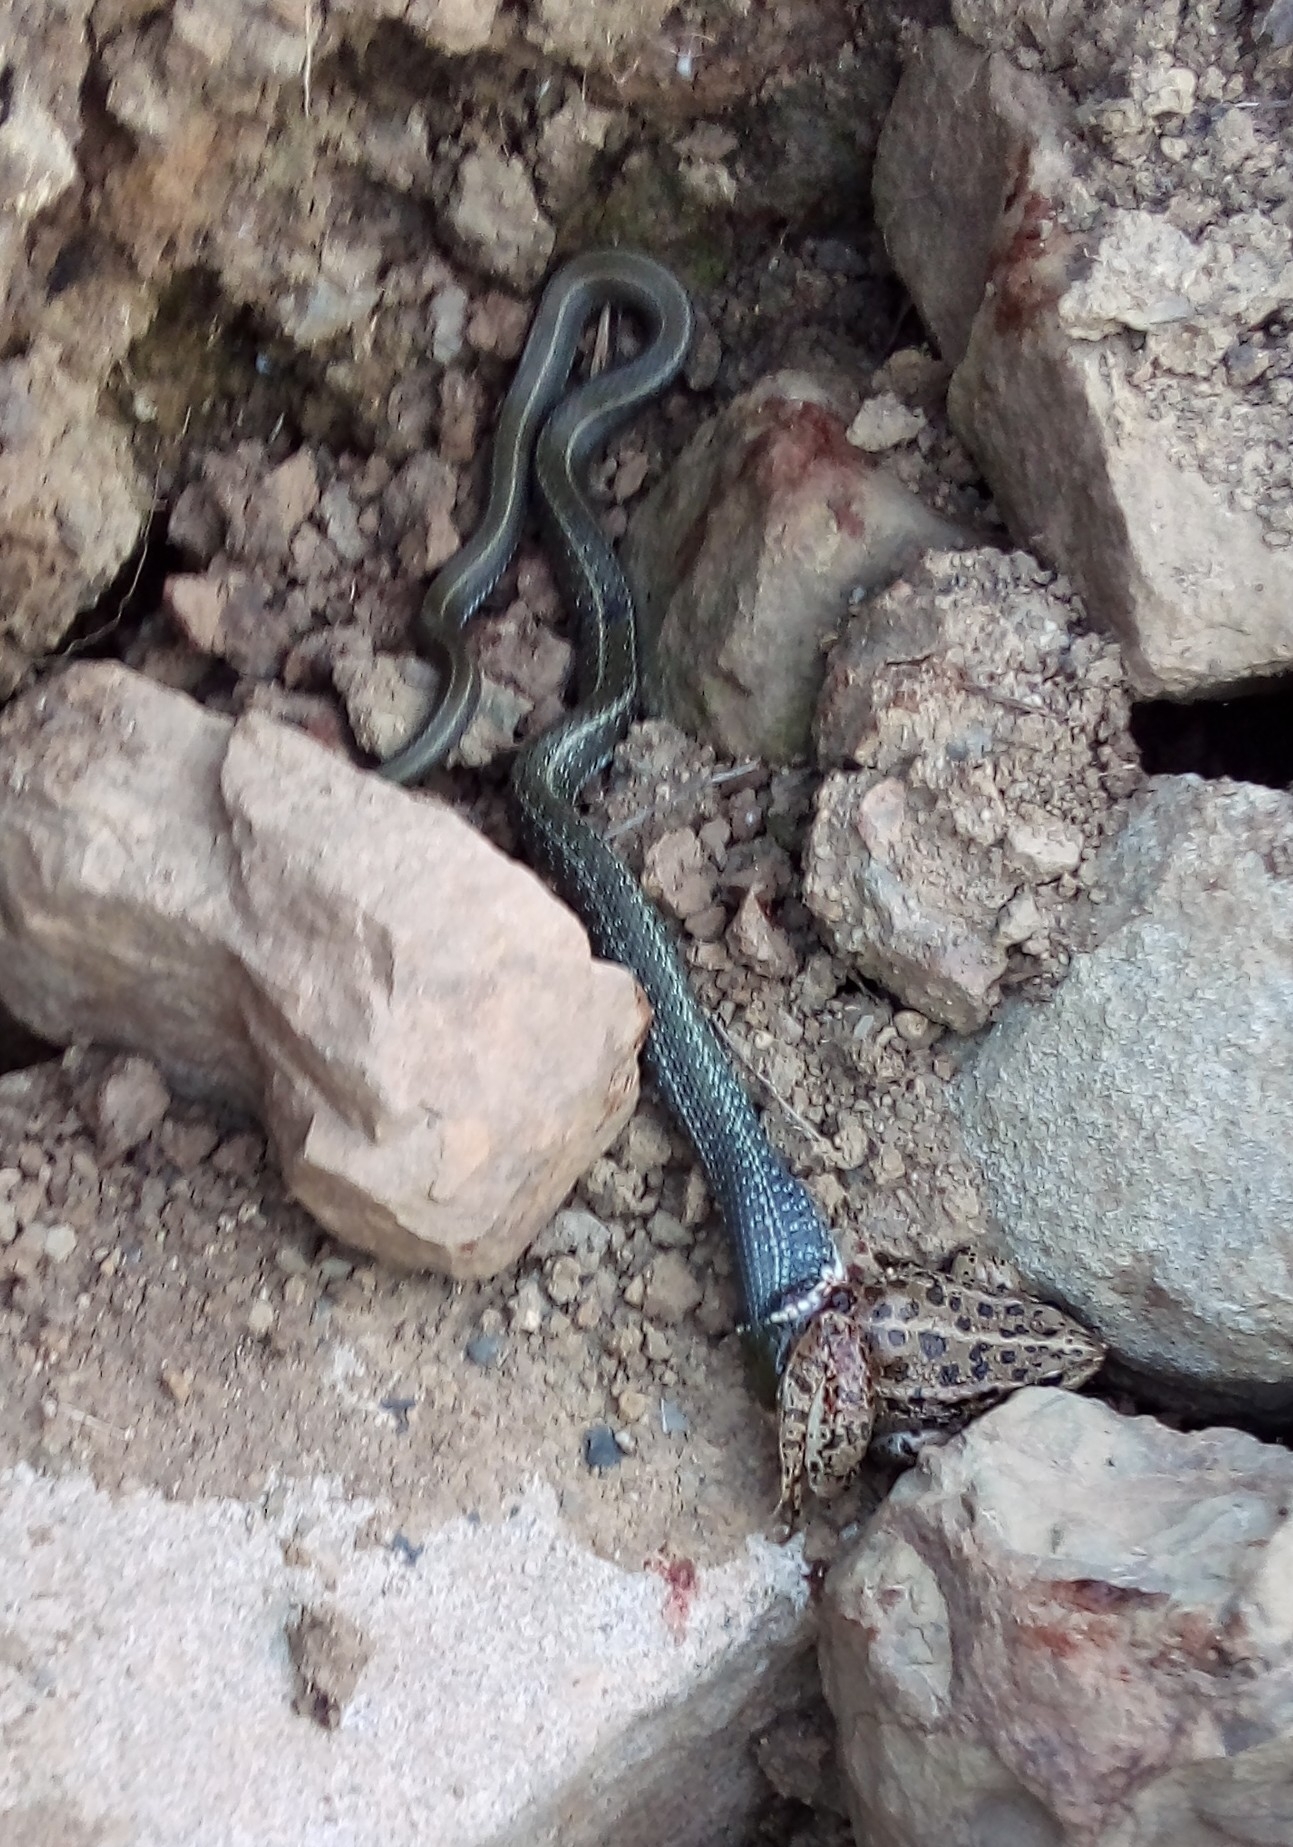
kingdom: Animalia
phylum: Chordata
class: Squamata
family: Colubridae
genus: Natrix
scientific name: Natrix natrix
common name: Grass snake
